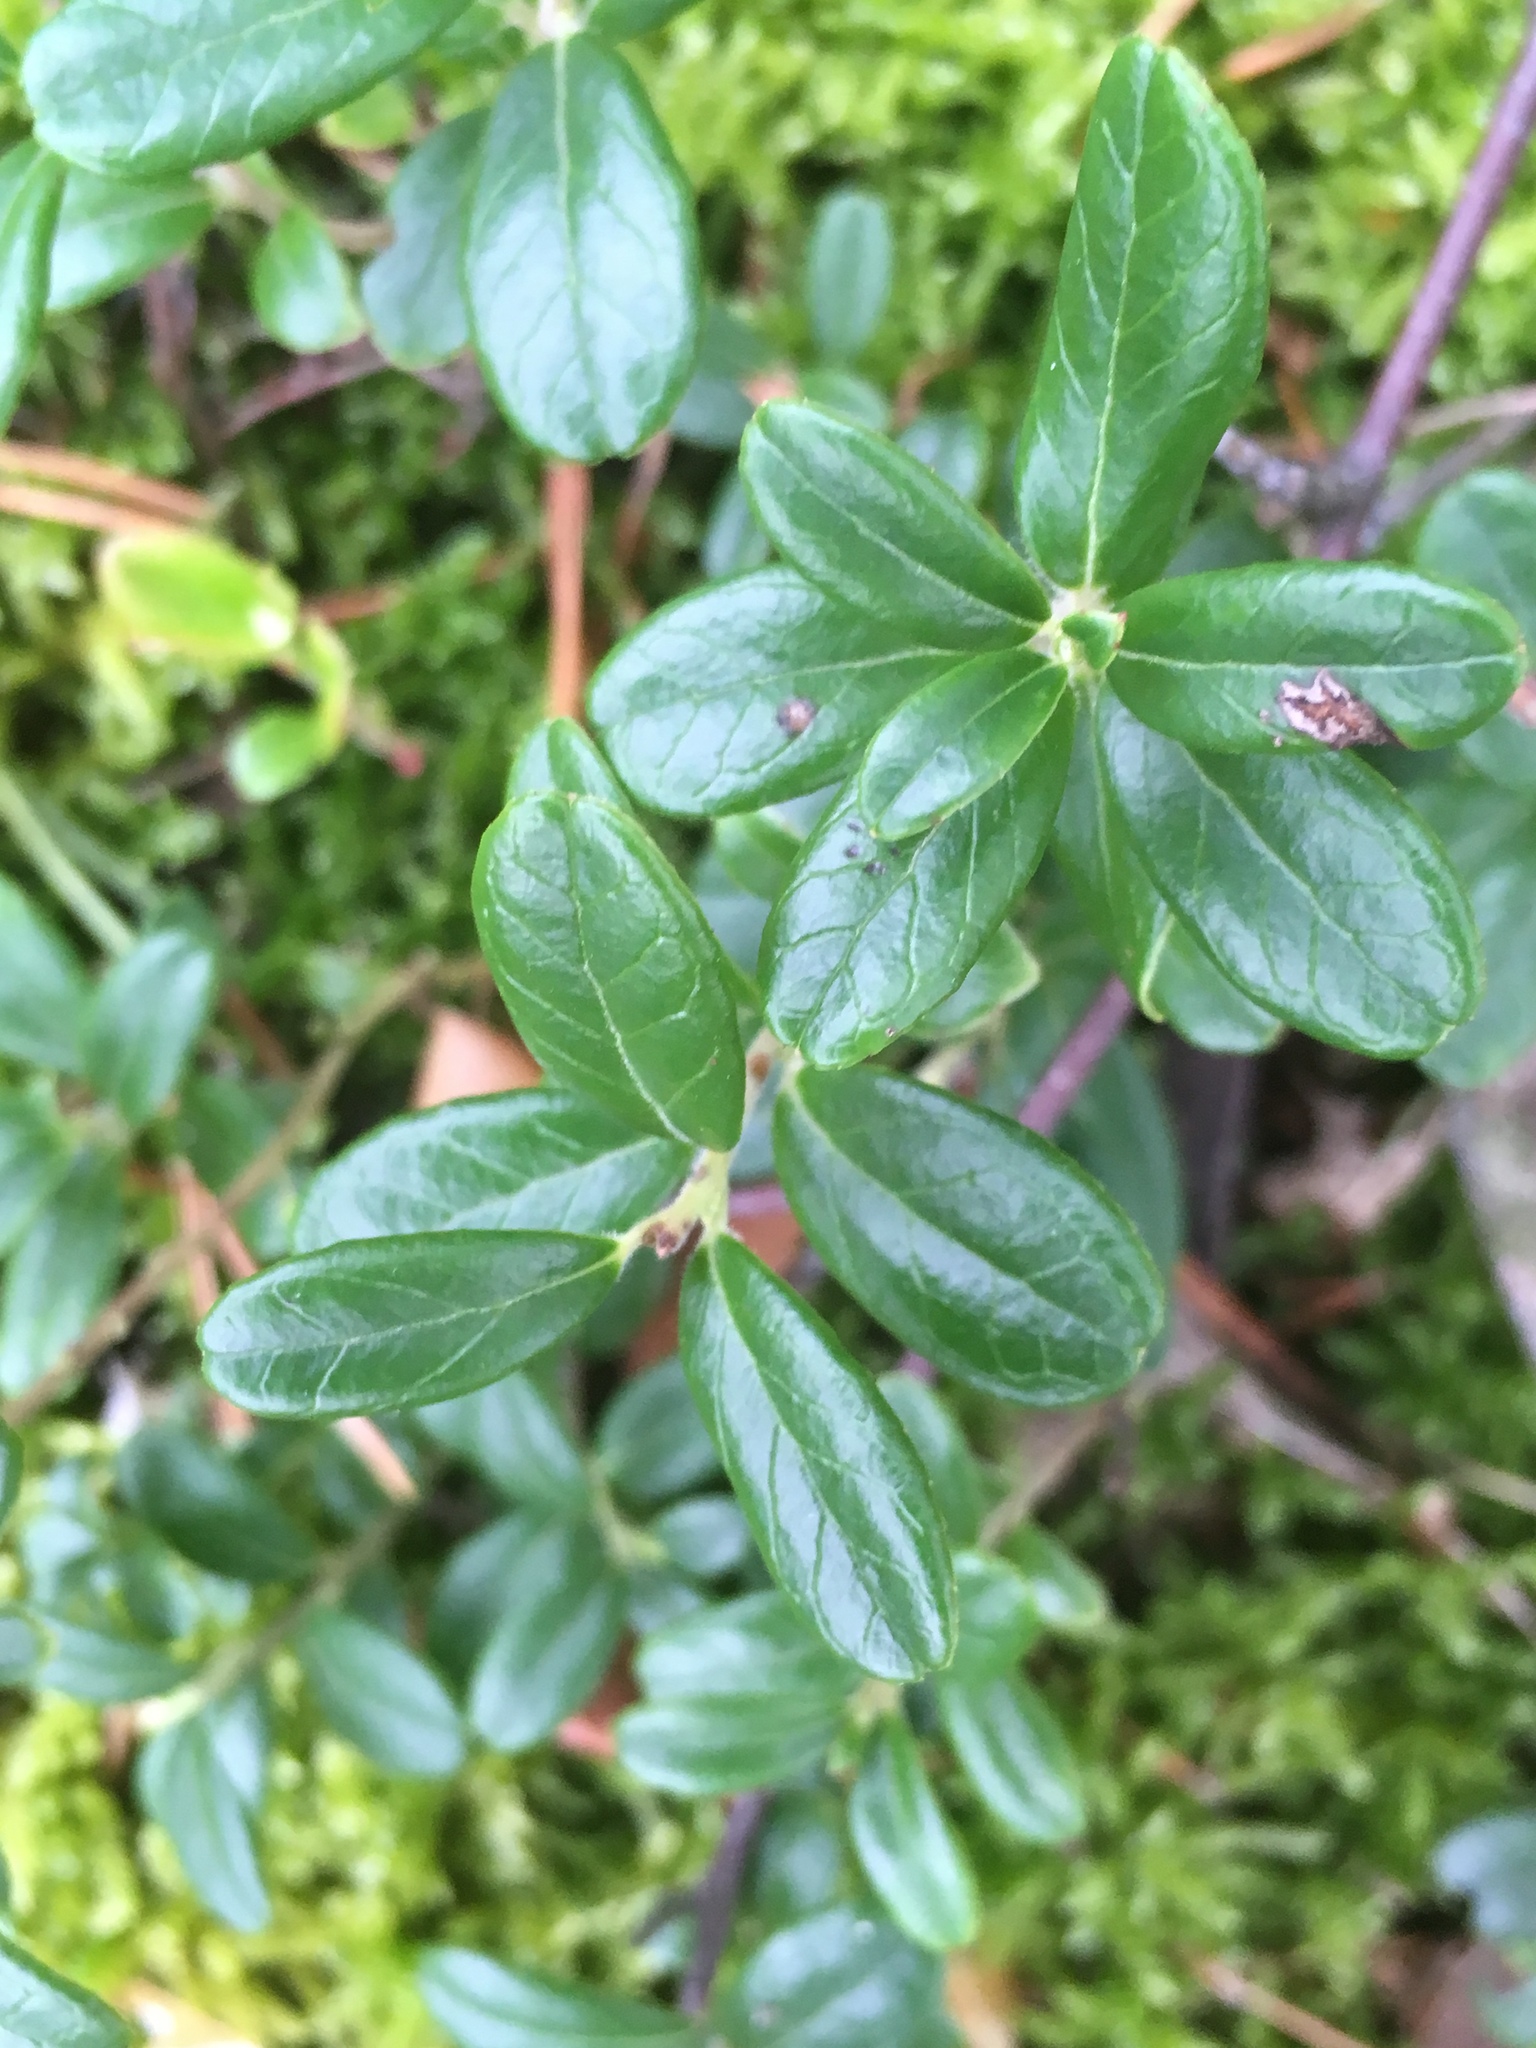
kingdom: Plantae
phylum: Tracheophyta
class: Magnoliopsida
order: Ericales
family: Ericaceae
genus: Vaccinium
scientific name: Vaccinium vitis-idaea
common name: Cowberry
